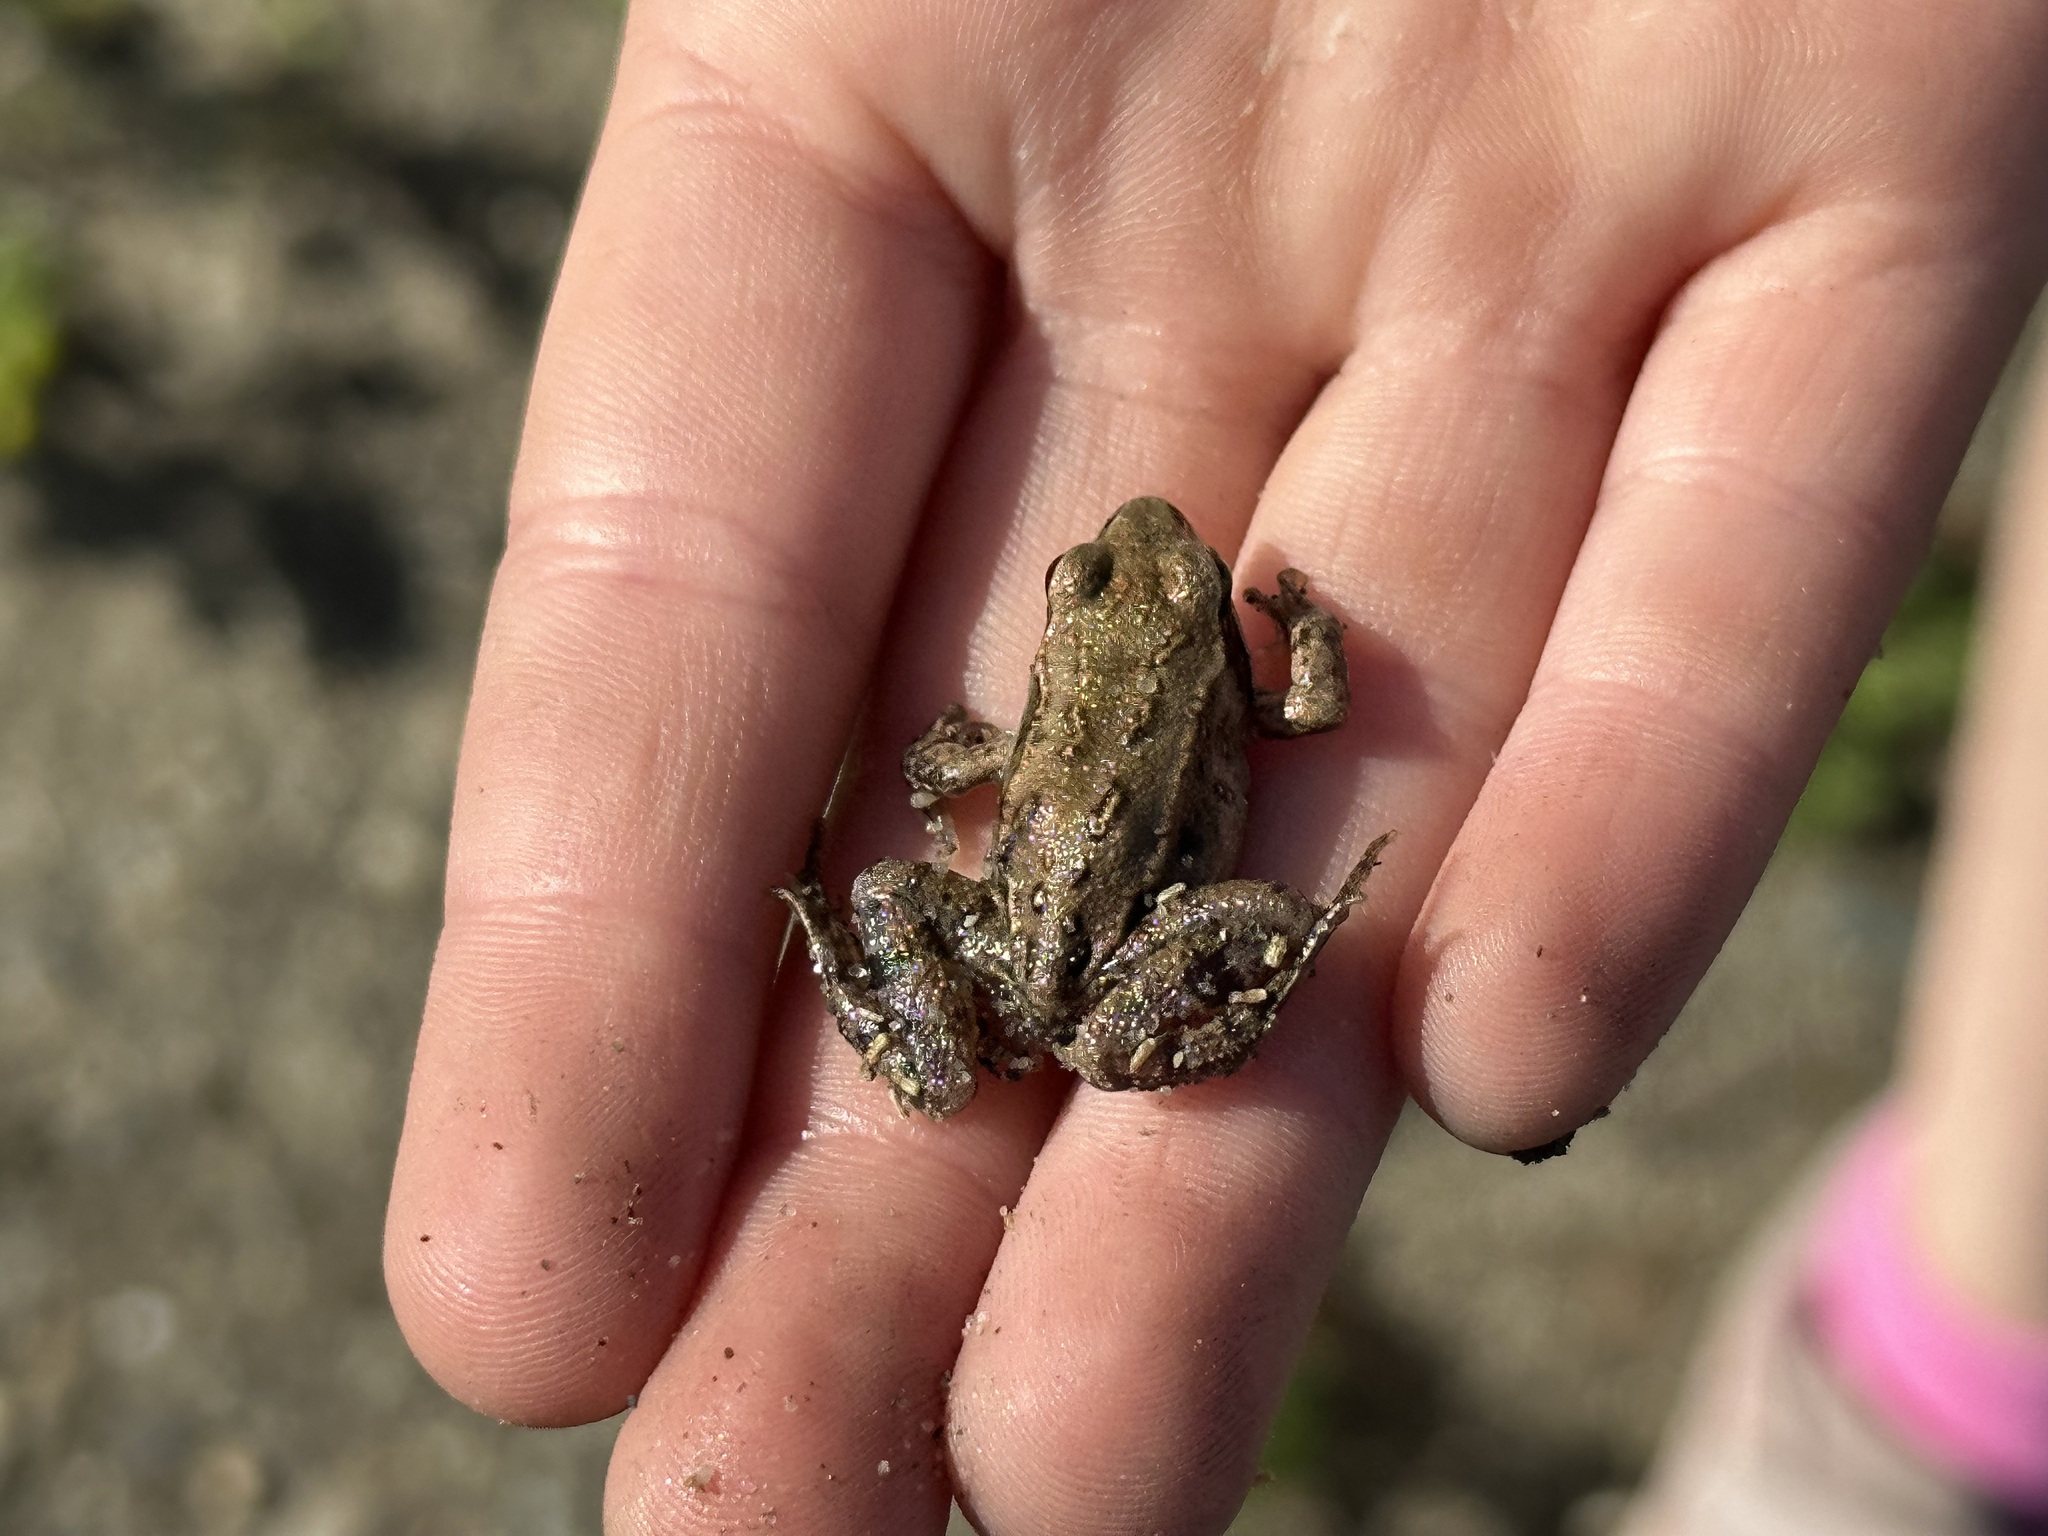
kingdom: Animalia
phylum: Chordata
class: Amphibia
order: Anura
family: Ranidae
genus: Lithobates
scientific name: Lithobates sylvaticus
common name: Wood frog
